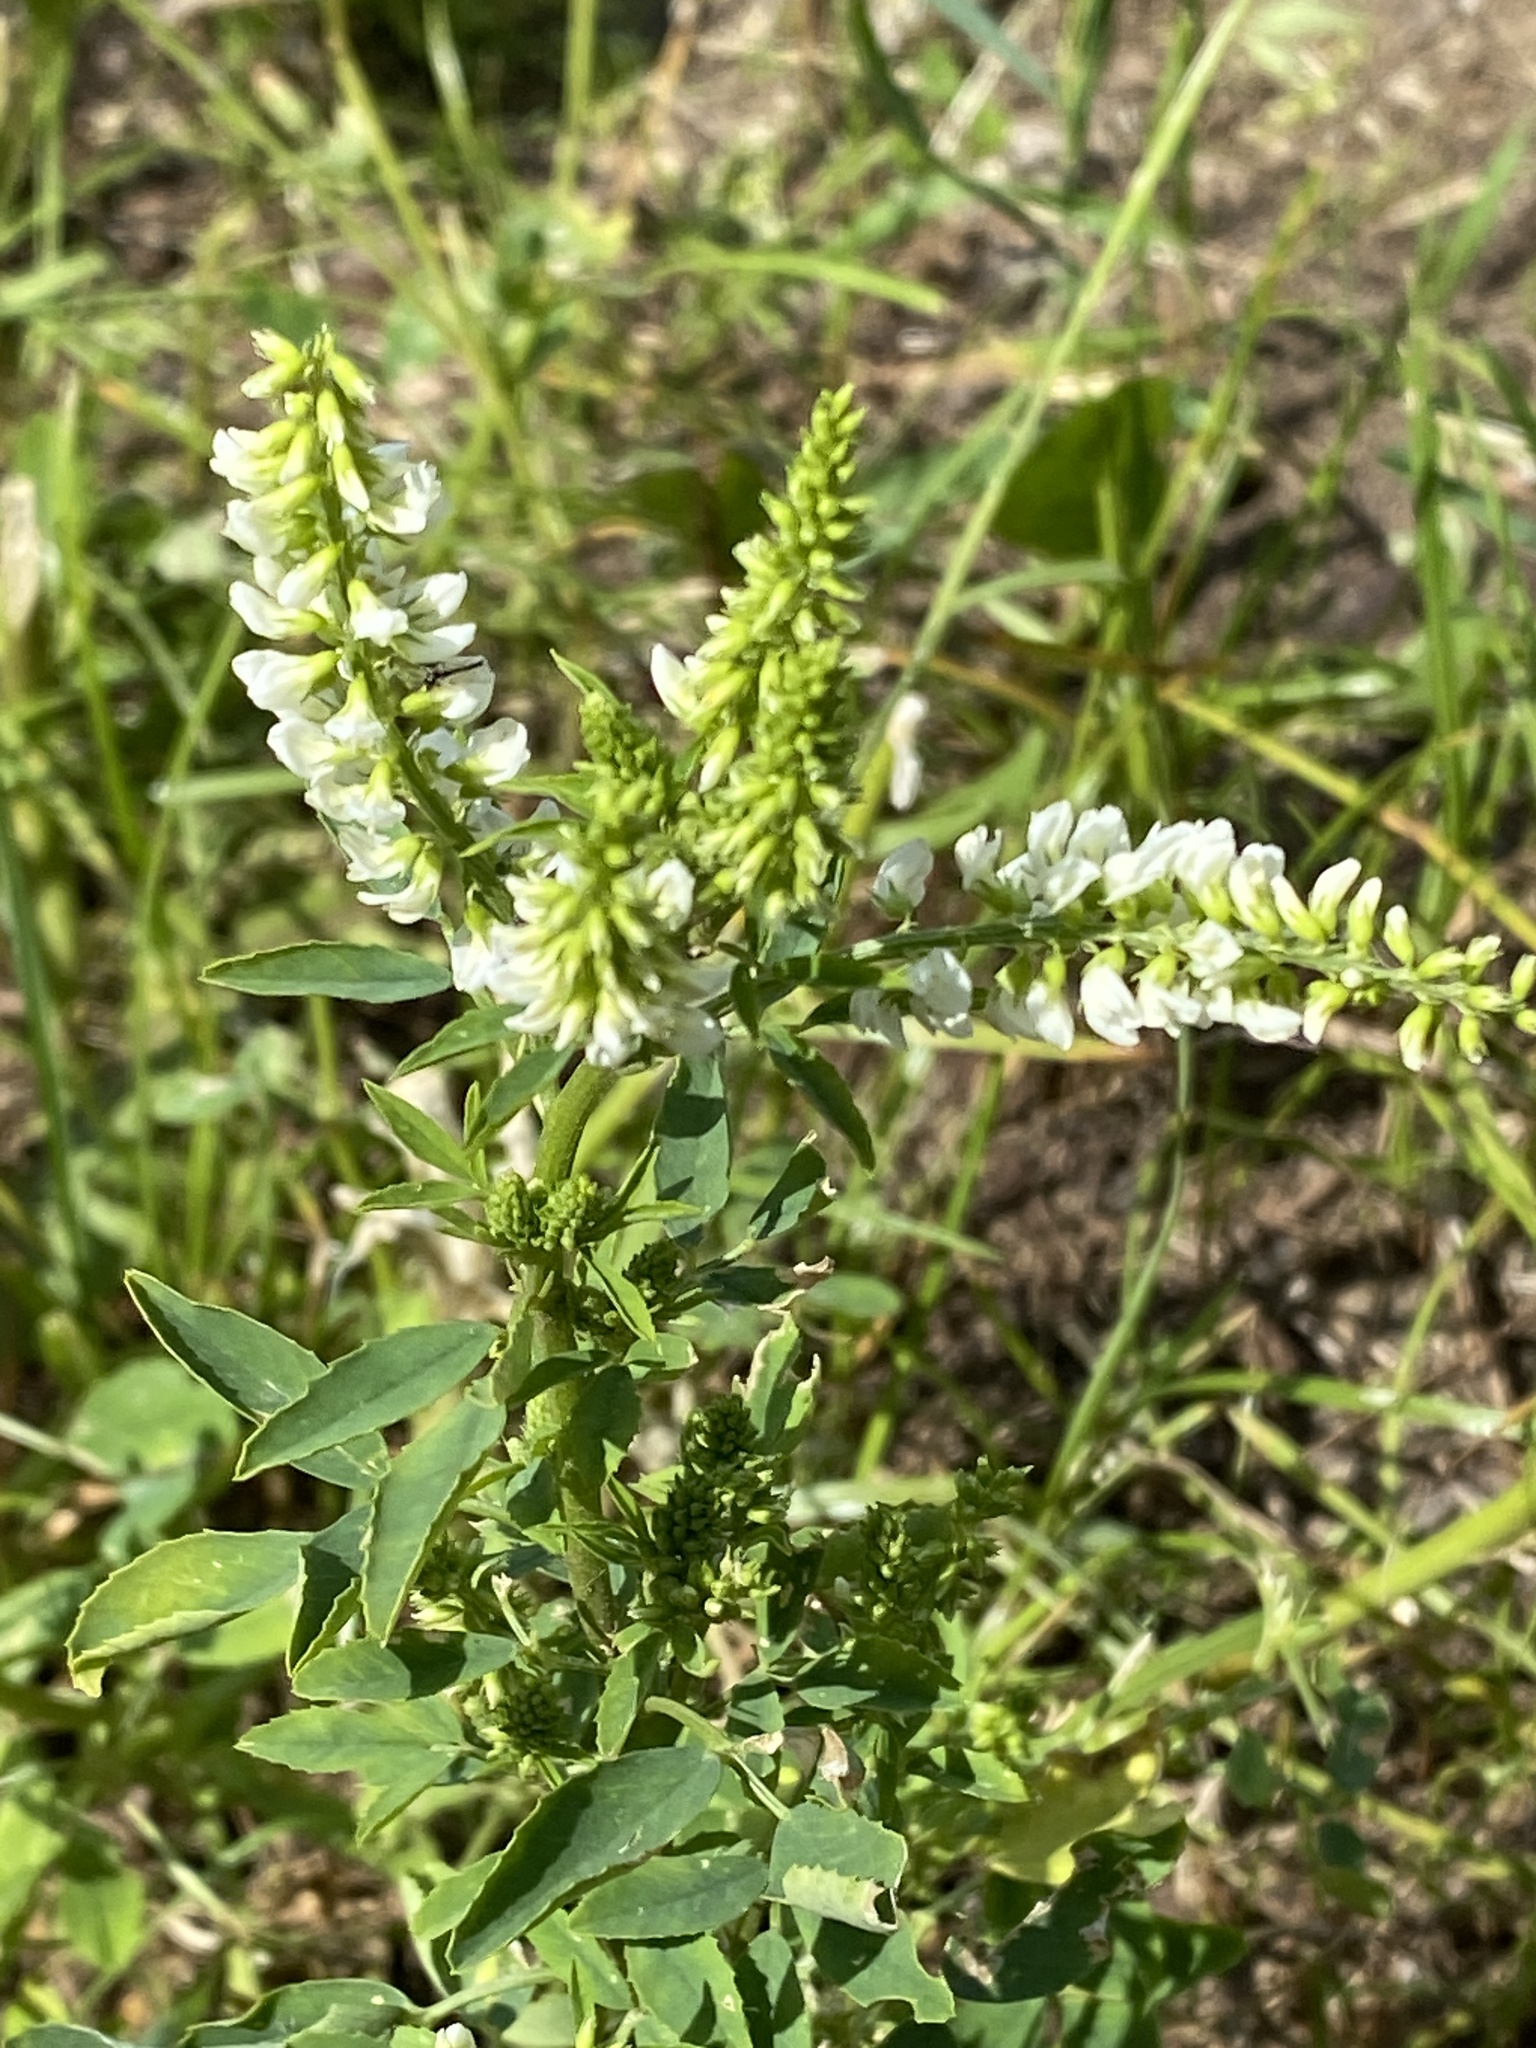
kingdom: Plantae
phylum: Tracheophyta
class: Magnoliopsida
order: Fabales
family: Fabaceae
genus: Melilotus
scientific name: Melilotus albus
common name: White melilot
